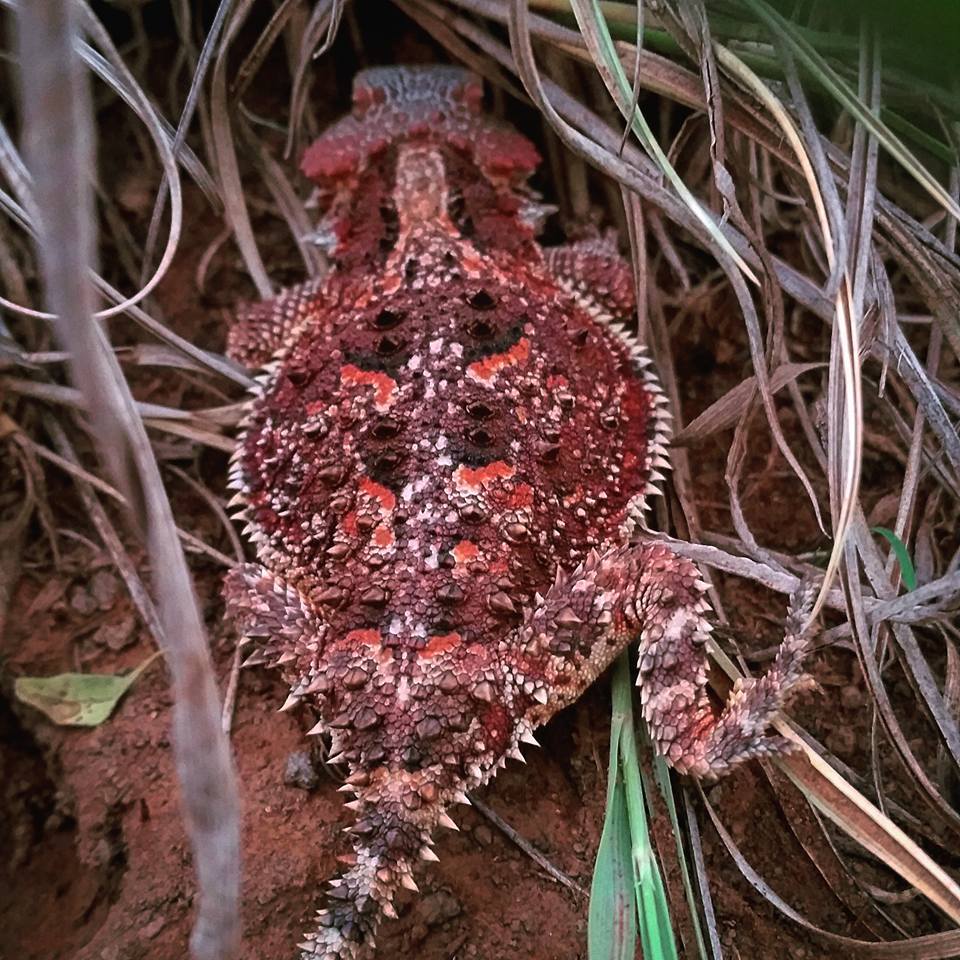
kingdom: Animalia
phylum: Chordata
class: Squamata
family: Phrynosomatidae
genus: Phrynosoma
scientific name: Phrynosoma hernandesi
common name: Greater short-horned lizard
